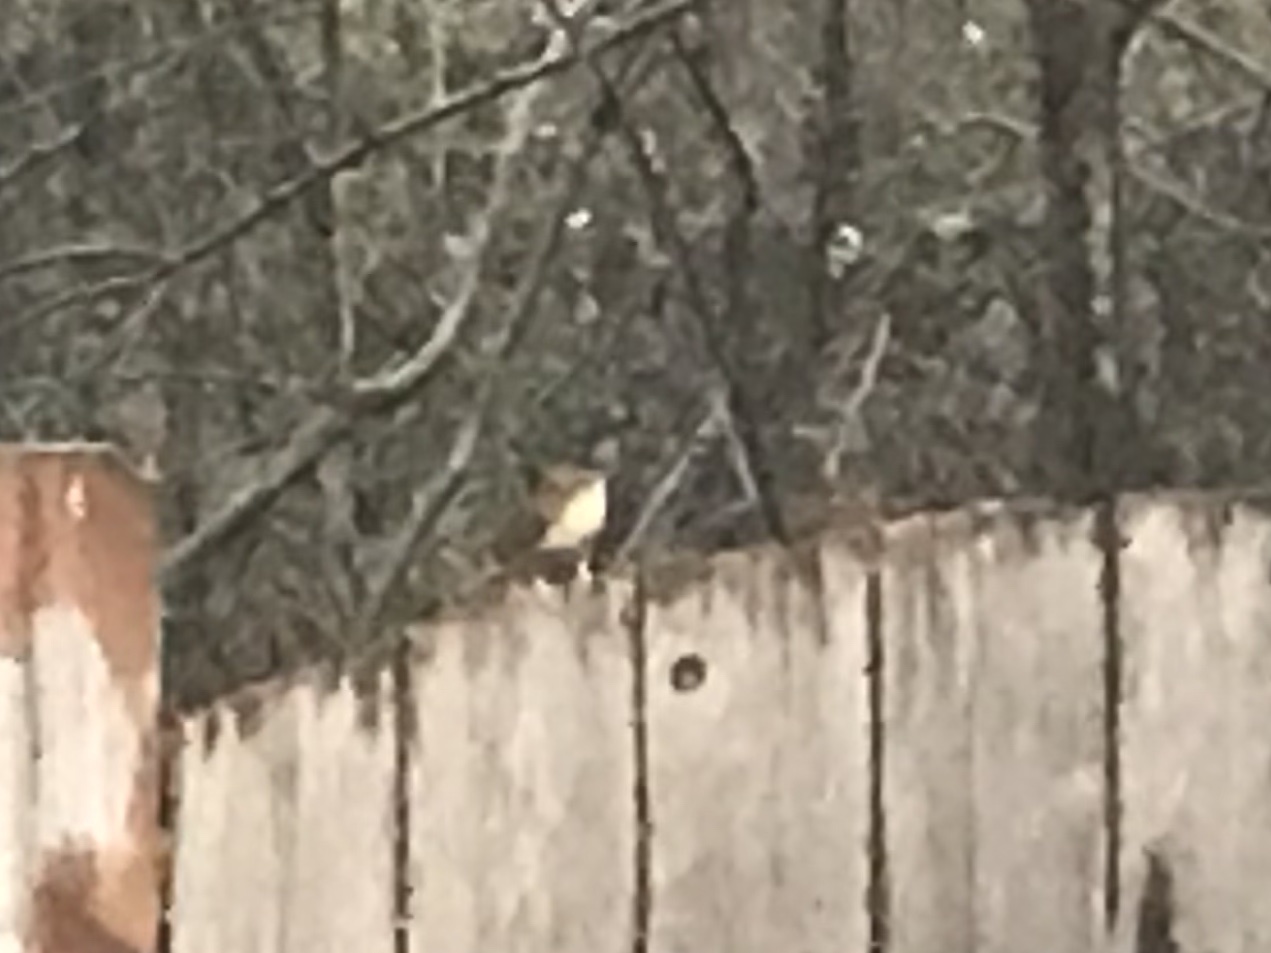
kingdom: Animalia
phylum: Chordata
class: Aves
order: Passeriformes
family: Troglodytidae
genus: Thryothorus
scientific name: Thryothorus ludovicianus
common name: Carolina wren
